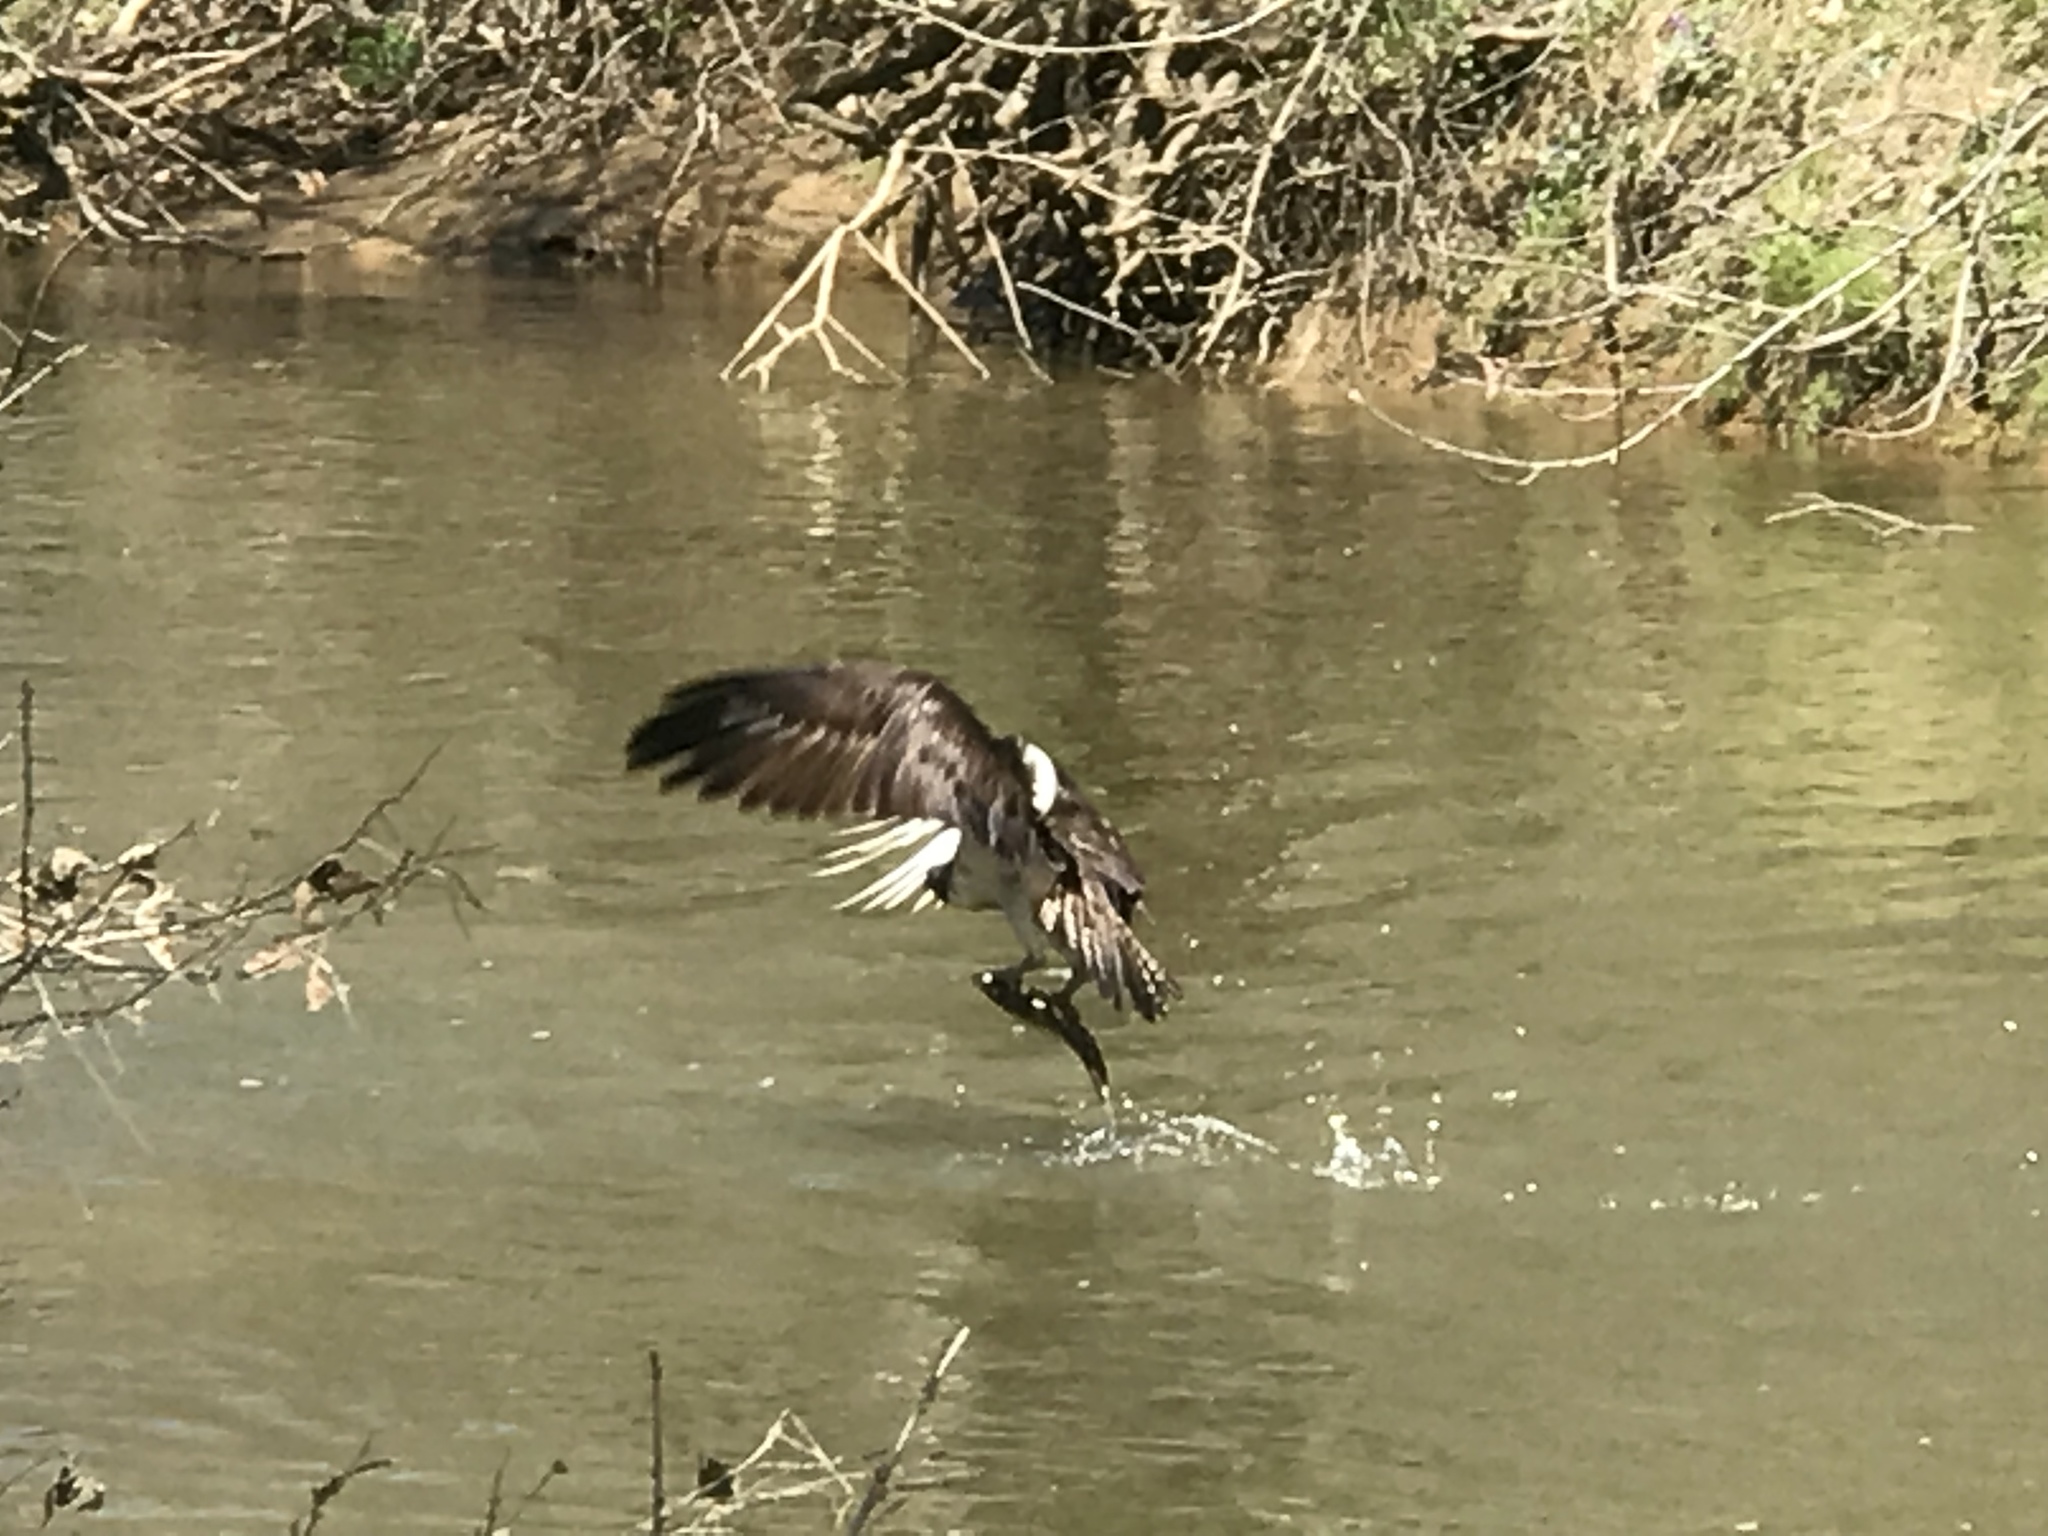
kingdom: Animalia
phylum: Chordata
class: Aves
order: Accipitriformes
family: Pandionidae
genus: Pandion
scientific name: Pandion haliaetus
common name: Osprey
